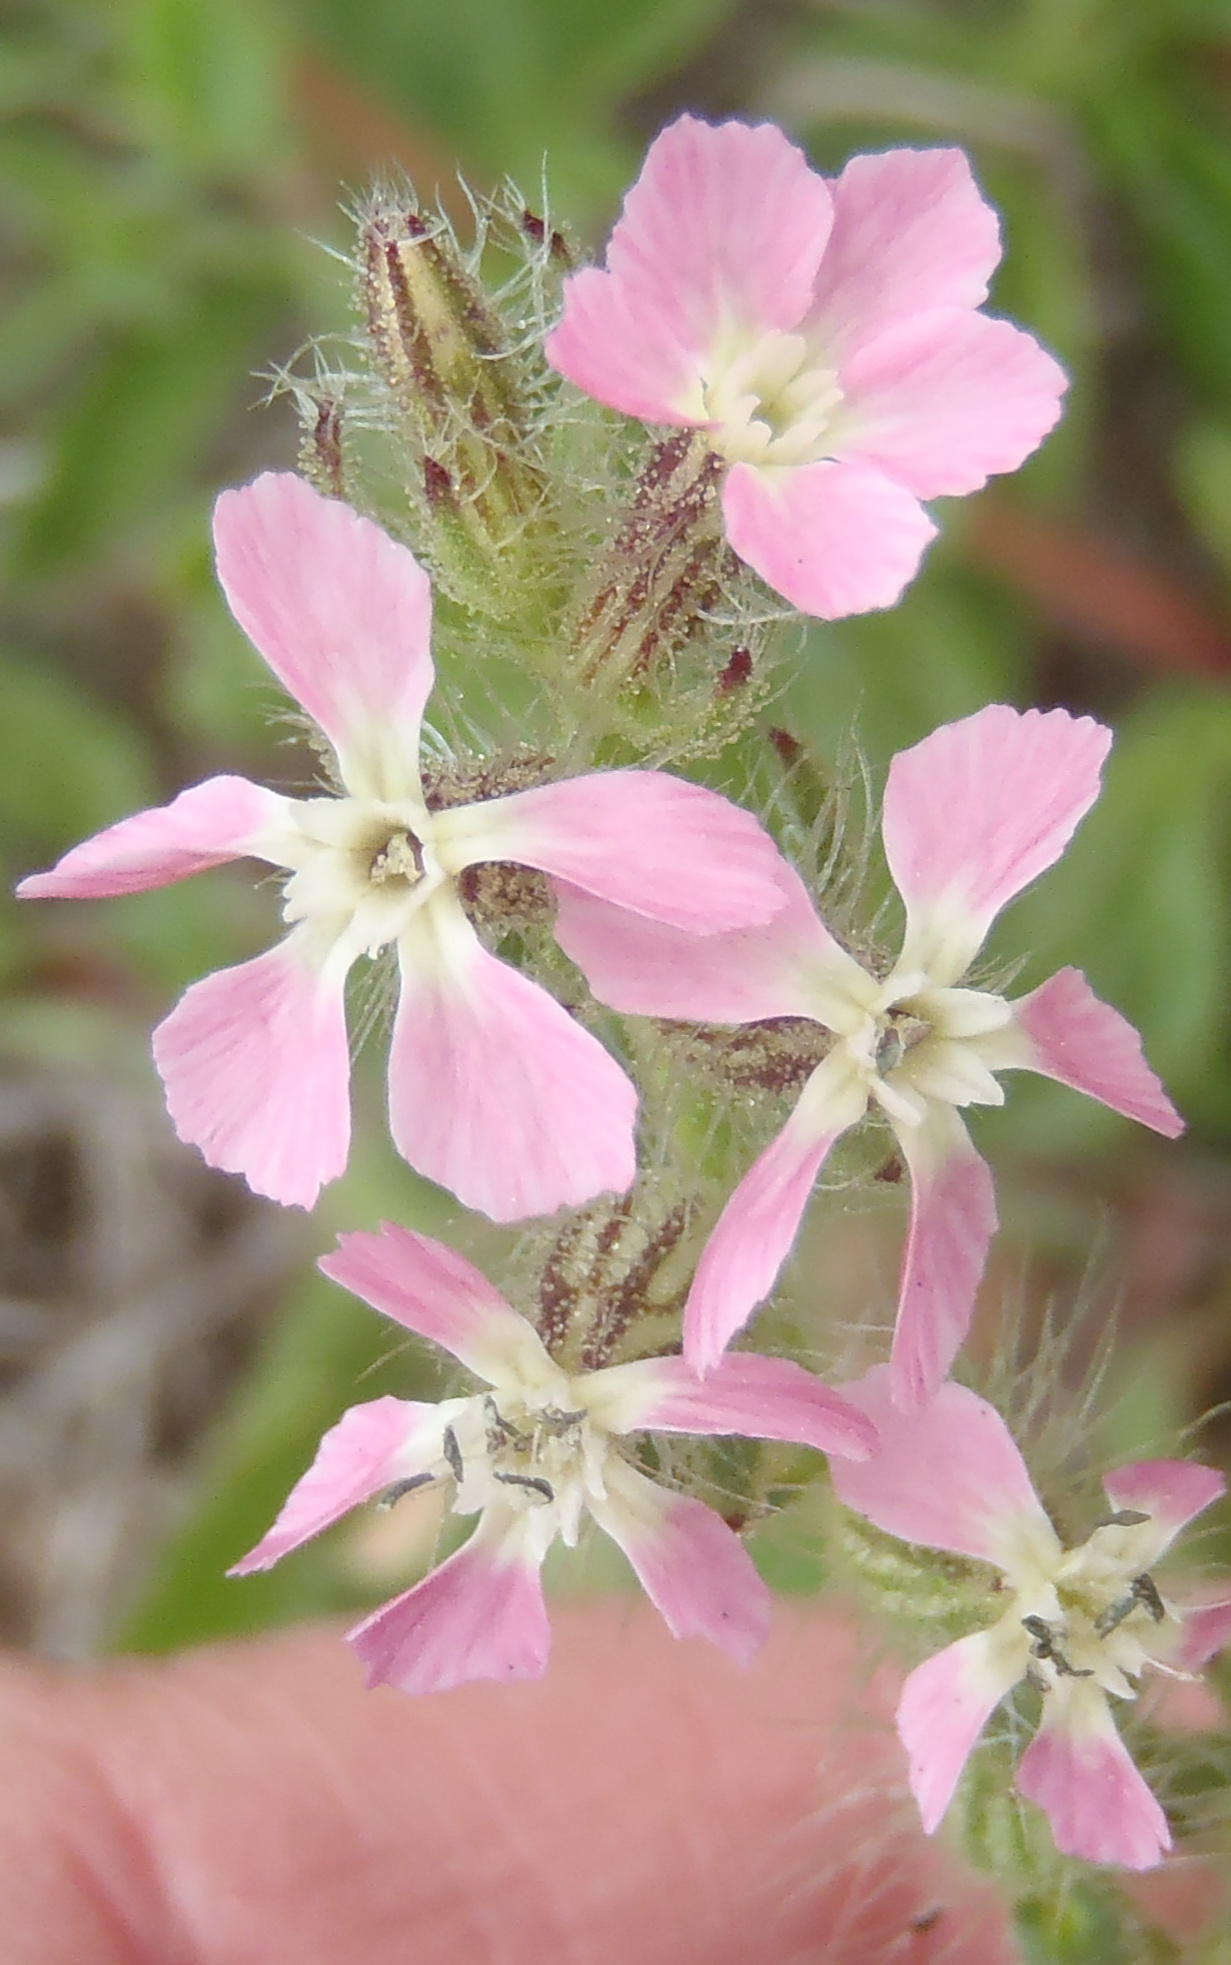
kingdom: Plantae
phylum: Tracheophyta
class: Magnoliopsida
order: Caryophyllales
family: Caryophyllaceae
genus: Silene
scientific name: Silene gallica
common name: Small-flowered catchfly
